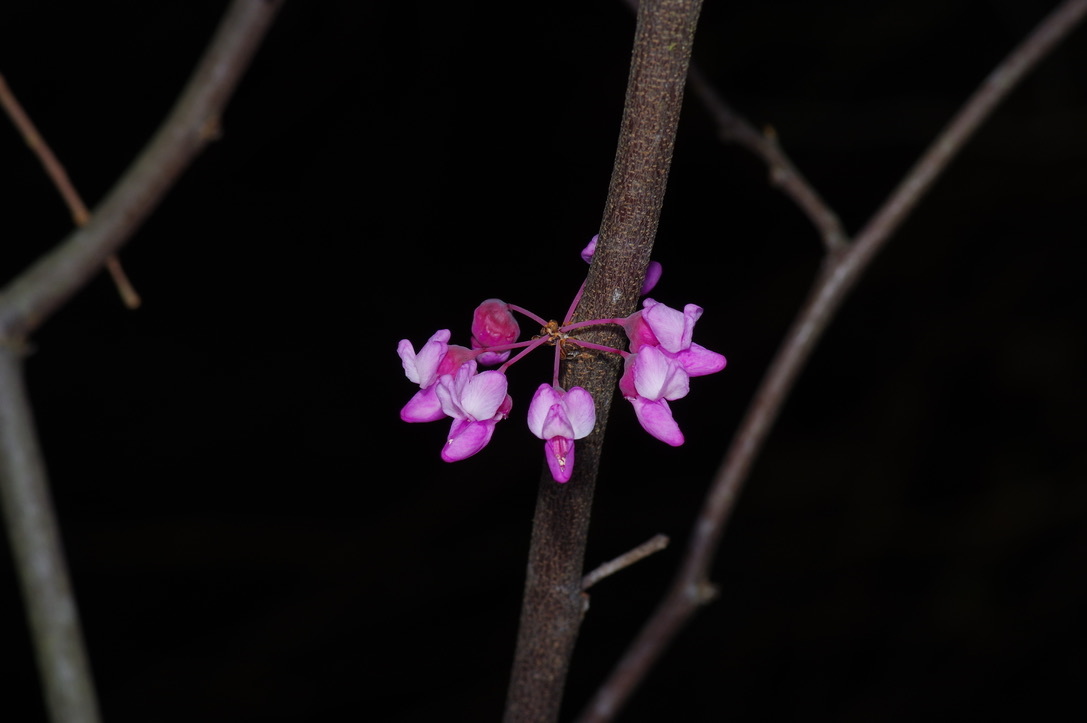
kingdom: Plantae
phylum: Tracheophyta
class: Magnoliopsida
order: Fabales
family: Fabaceae
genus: Cercis
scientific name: Cercis canadensis
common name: Eastern redbud
